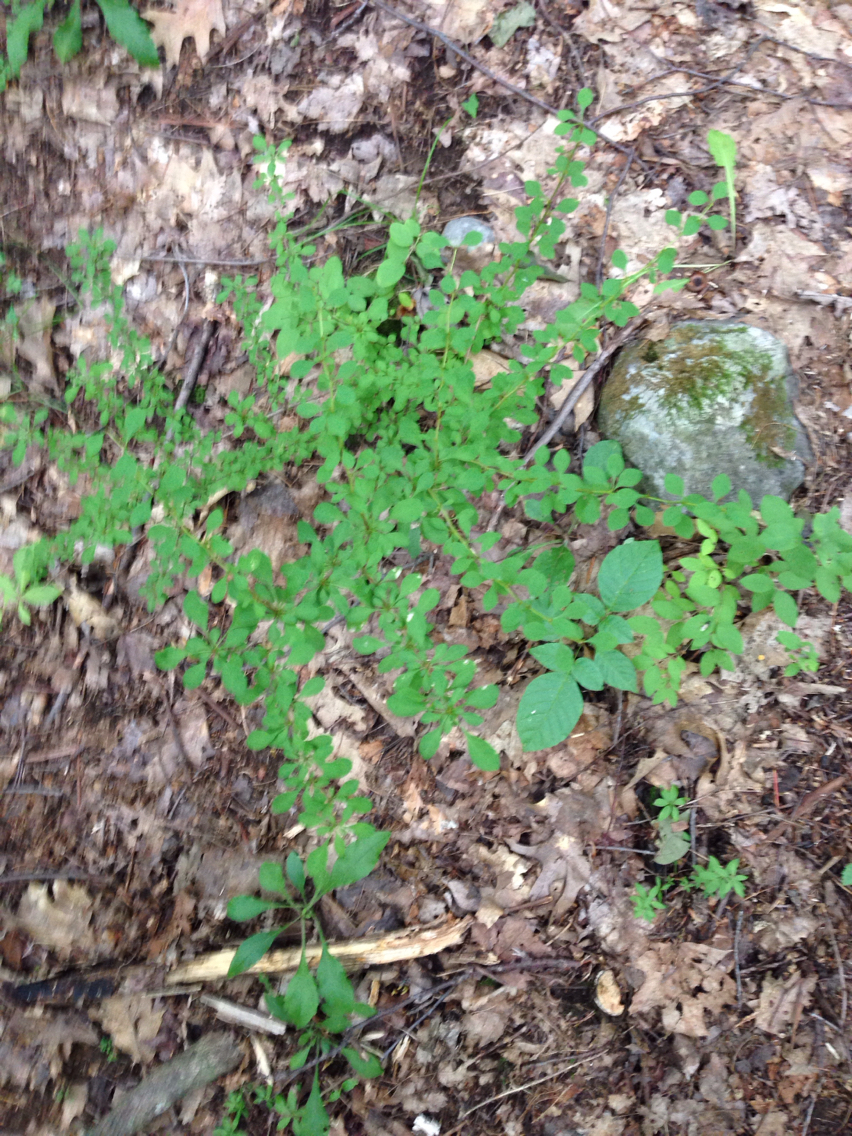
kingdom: Plantae
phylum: Tracheophyta
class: Magnoliopsida
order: Ranunculales
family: Berberidaceae
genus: Berberis
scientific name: Berberis thunbergii
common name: Japanese barberry
